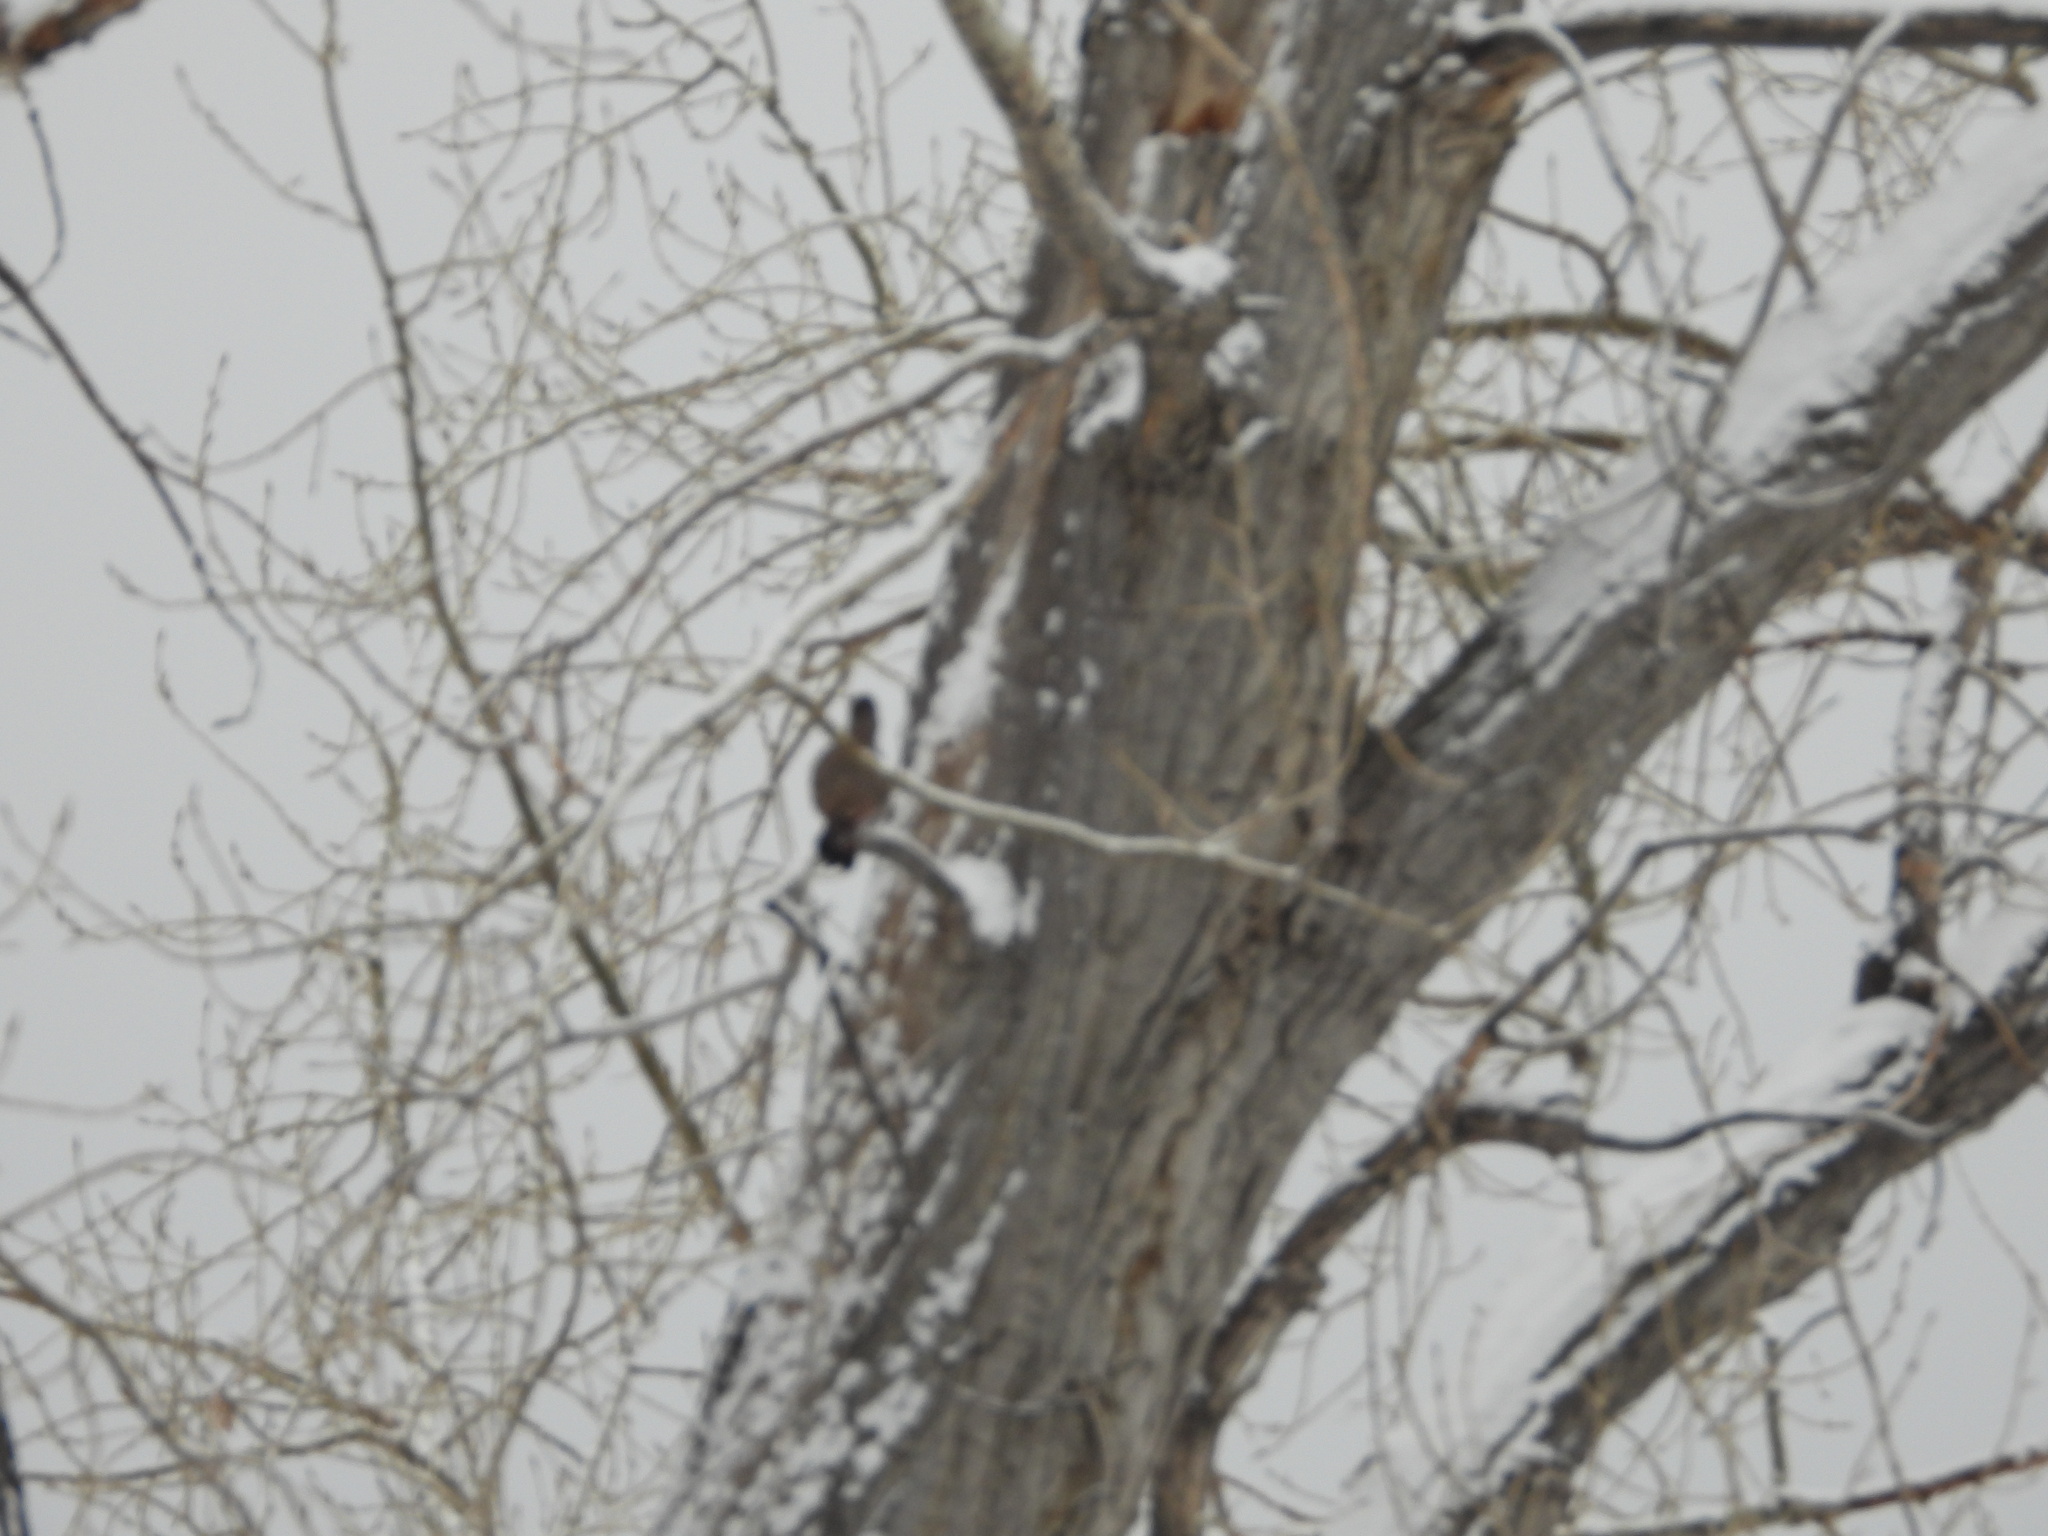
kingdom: Animalia
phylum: Chordata
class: Aves
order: Piciformes
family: Picidae
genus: Colaptes
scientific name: Colaptes auratus
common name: Northern flicker
